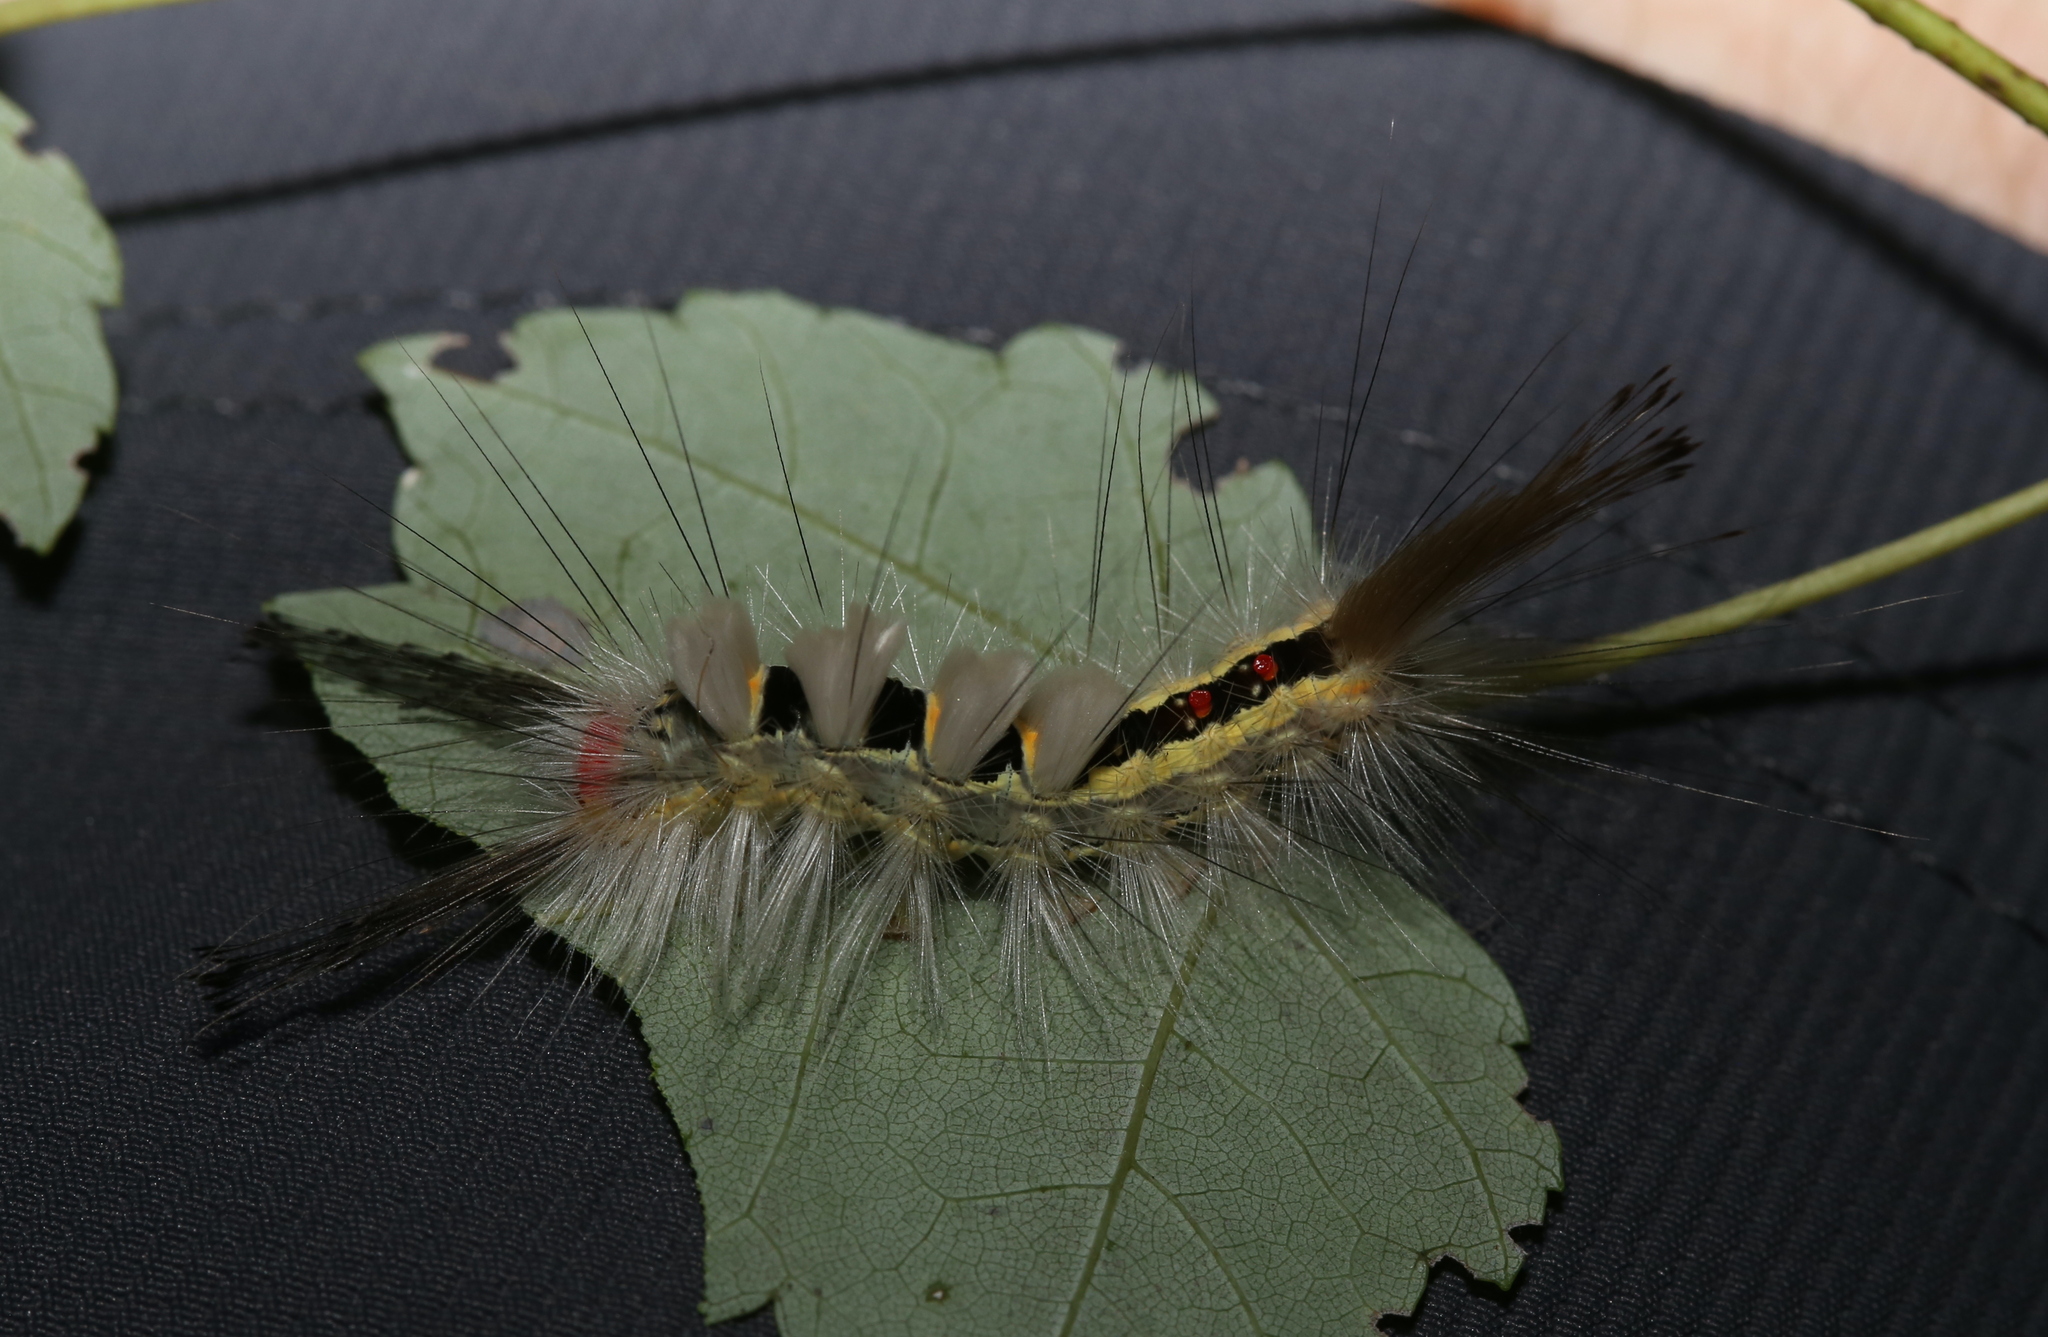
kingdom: Animalia
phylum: Arthropoda
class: Insecta
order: Lepidoptera
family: Erebidae
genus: Orgyia
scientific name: Orgyia leucostigma
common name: White-marked tussock moth
